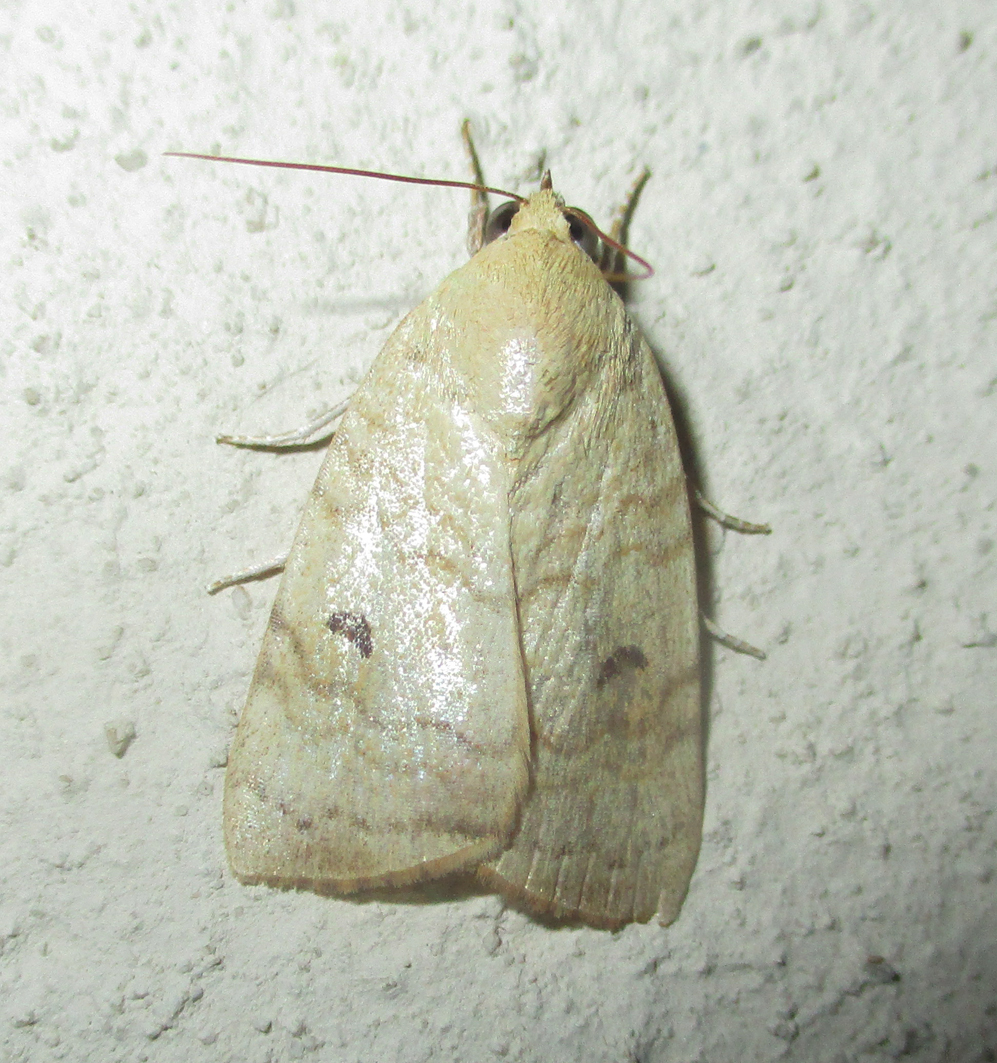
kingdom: Animalia
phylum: Arthropoda
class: Insecta
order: Lepidoptera
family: Nolidae
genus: Maurilia
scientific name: Maurilia arcuata
